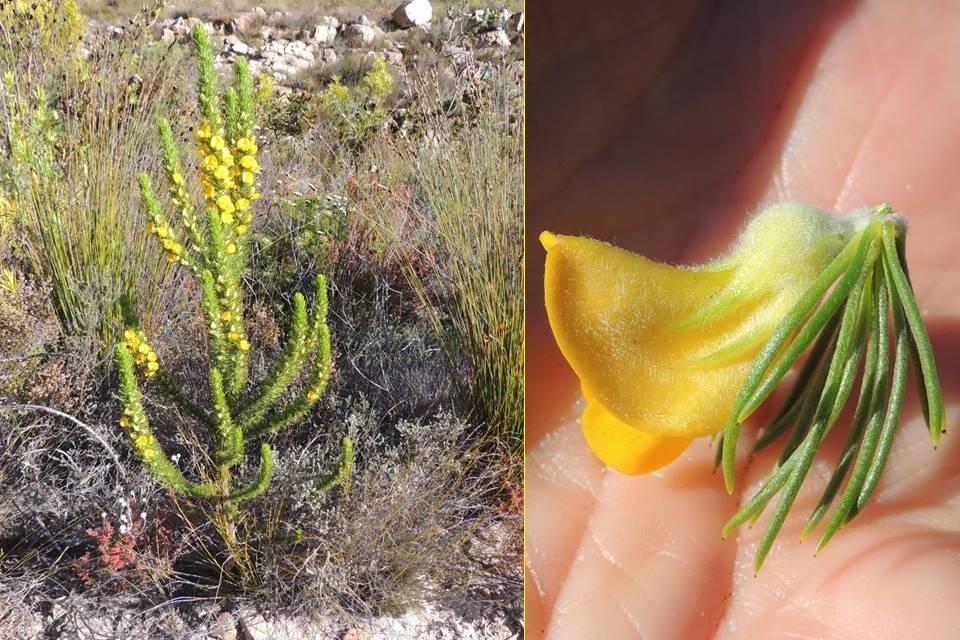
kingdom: Plantae
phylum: Tracheophyta
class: Magnoliopsida
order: Fabales
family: Fabaceae
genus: Aspalathus
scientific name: Aspalathus acanthes
